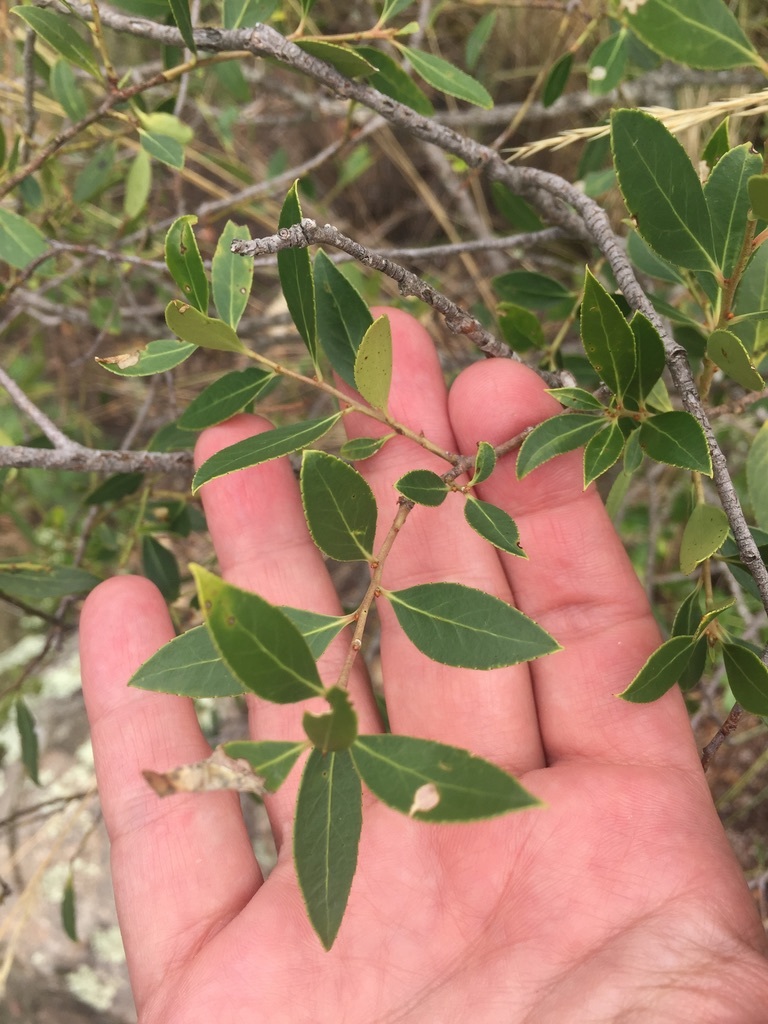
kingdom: Plantae
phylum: Tracheophyta
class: Magnoliopsida
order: Celastrales
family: Celastraceae
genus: Maytenus
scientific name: Maytenus boaria
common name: Mayten
